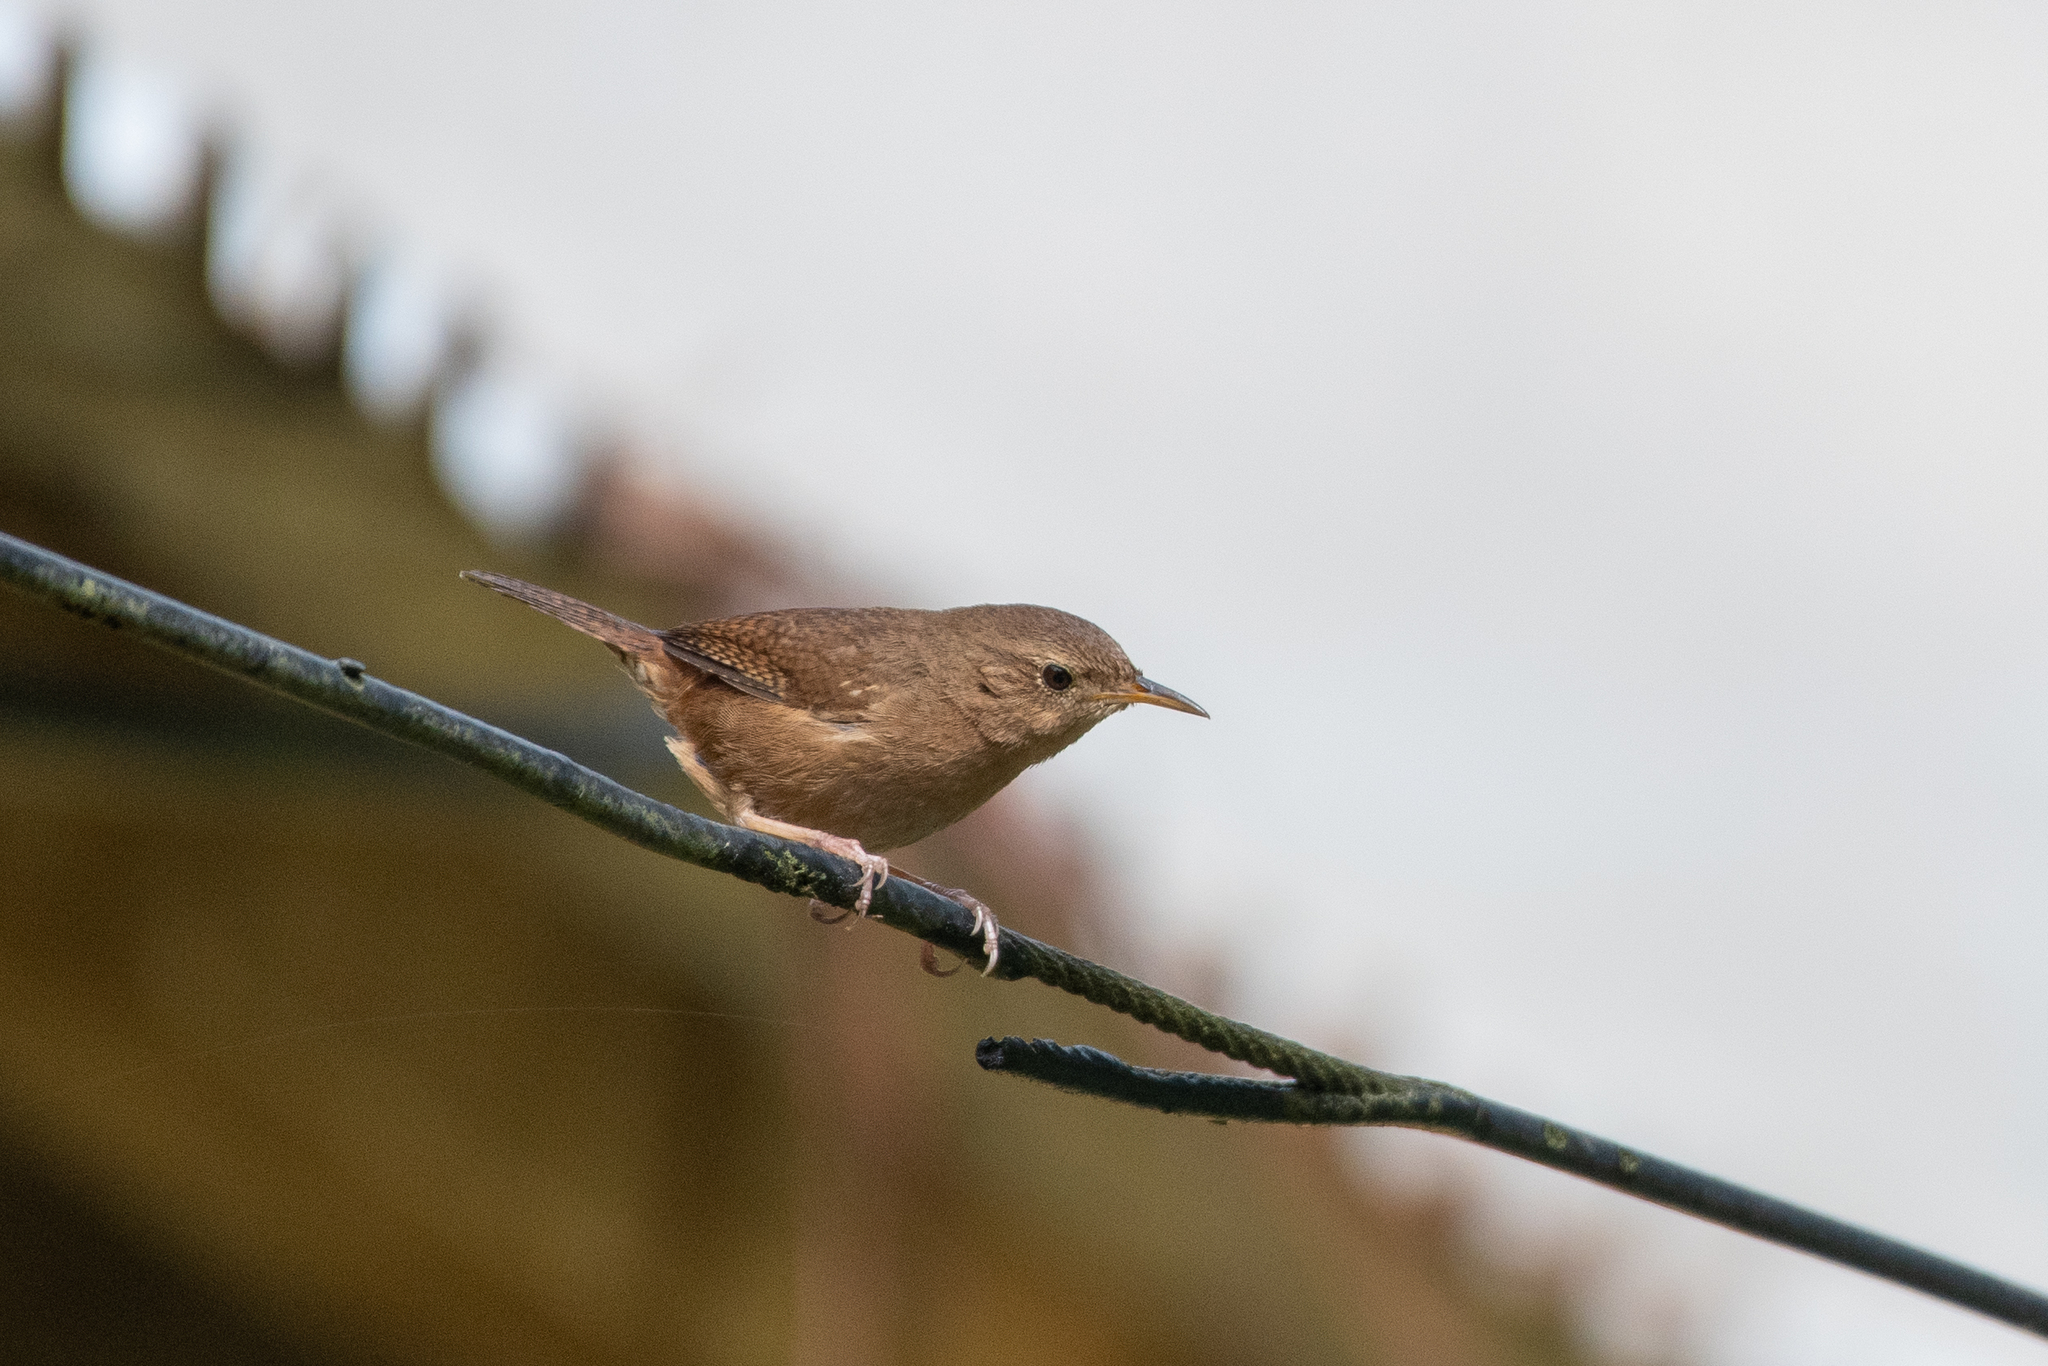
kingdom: Animalia
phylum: Chordata
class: Aves
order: Passeriformes
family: Troglodytidae
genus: Troglodytes
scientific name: Troglodytes aedon
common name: House wren
